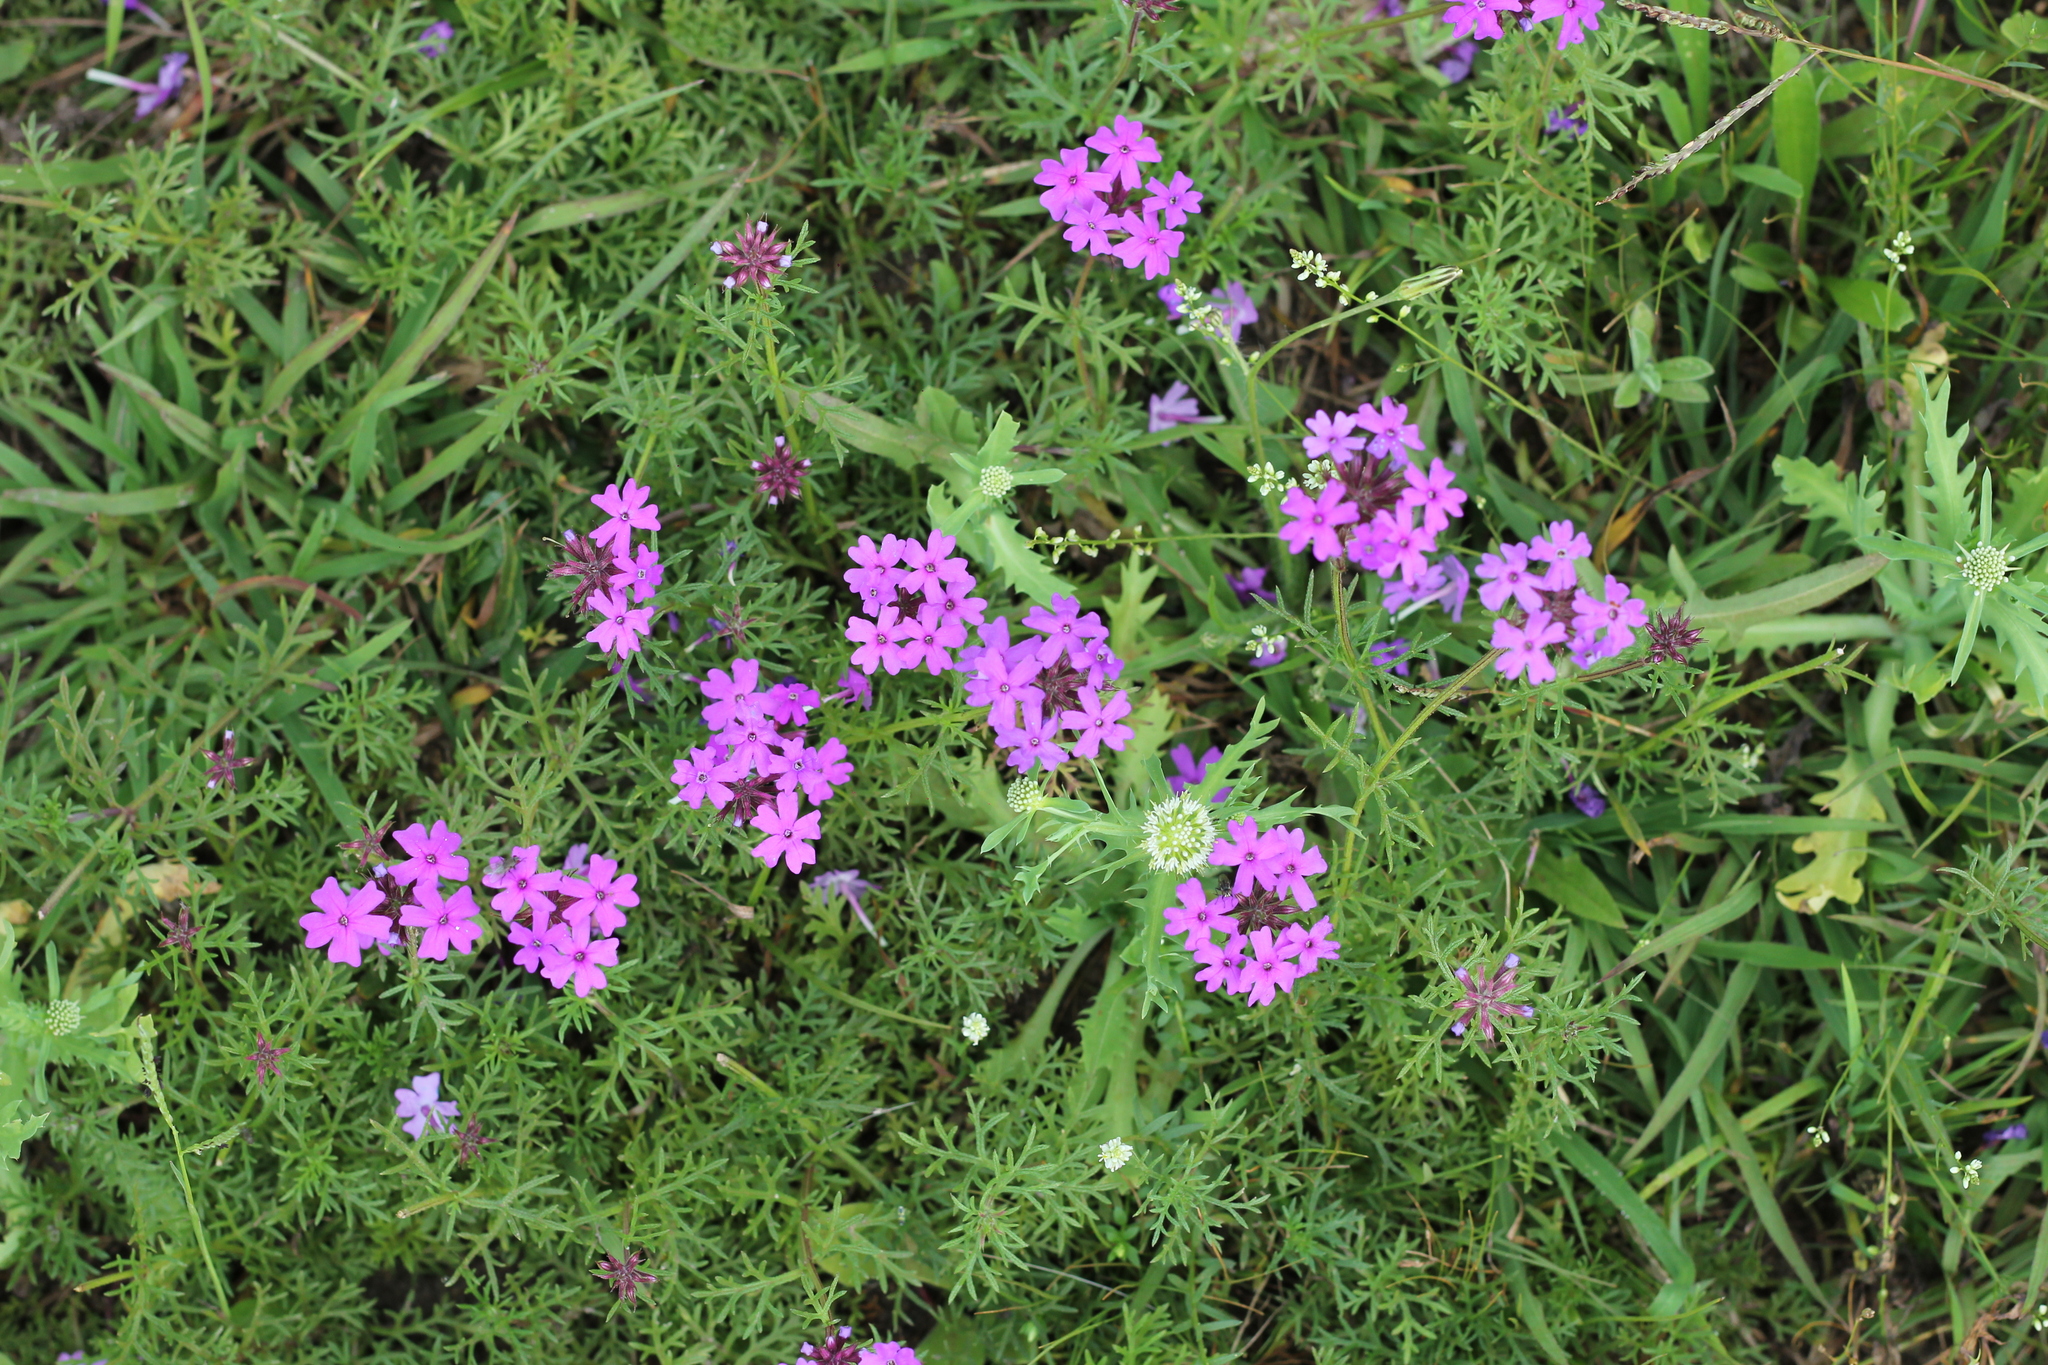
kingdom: Plantae
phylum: Tracheophyta
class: Magnoliopsida
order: Lamiales
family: Verbenaceae
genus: Verbena
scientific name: Verbena aristigera
